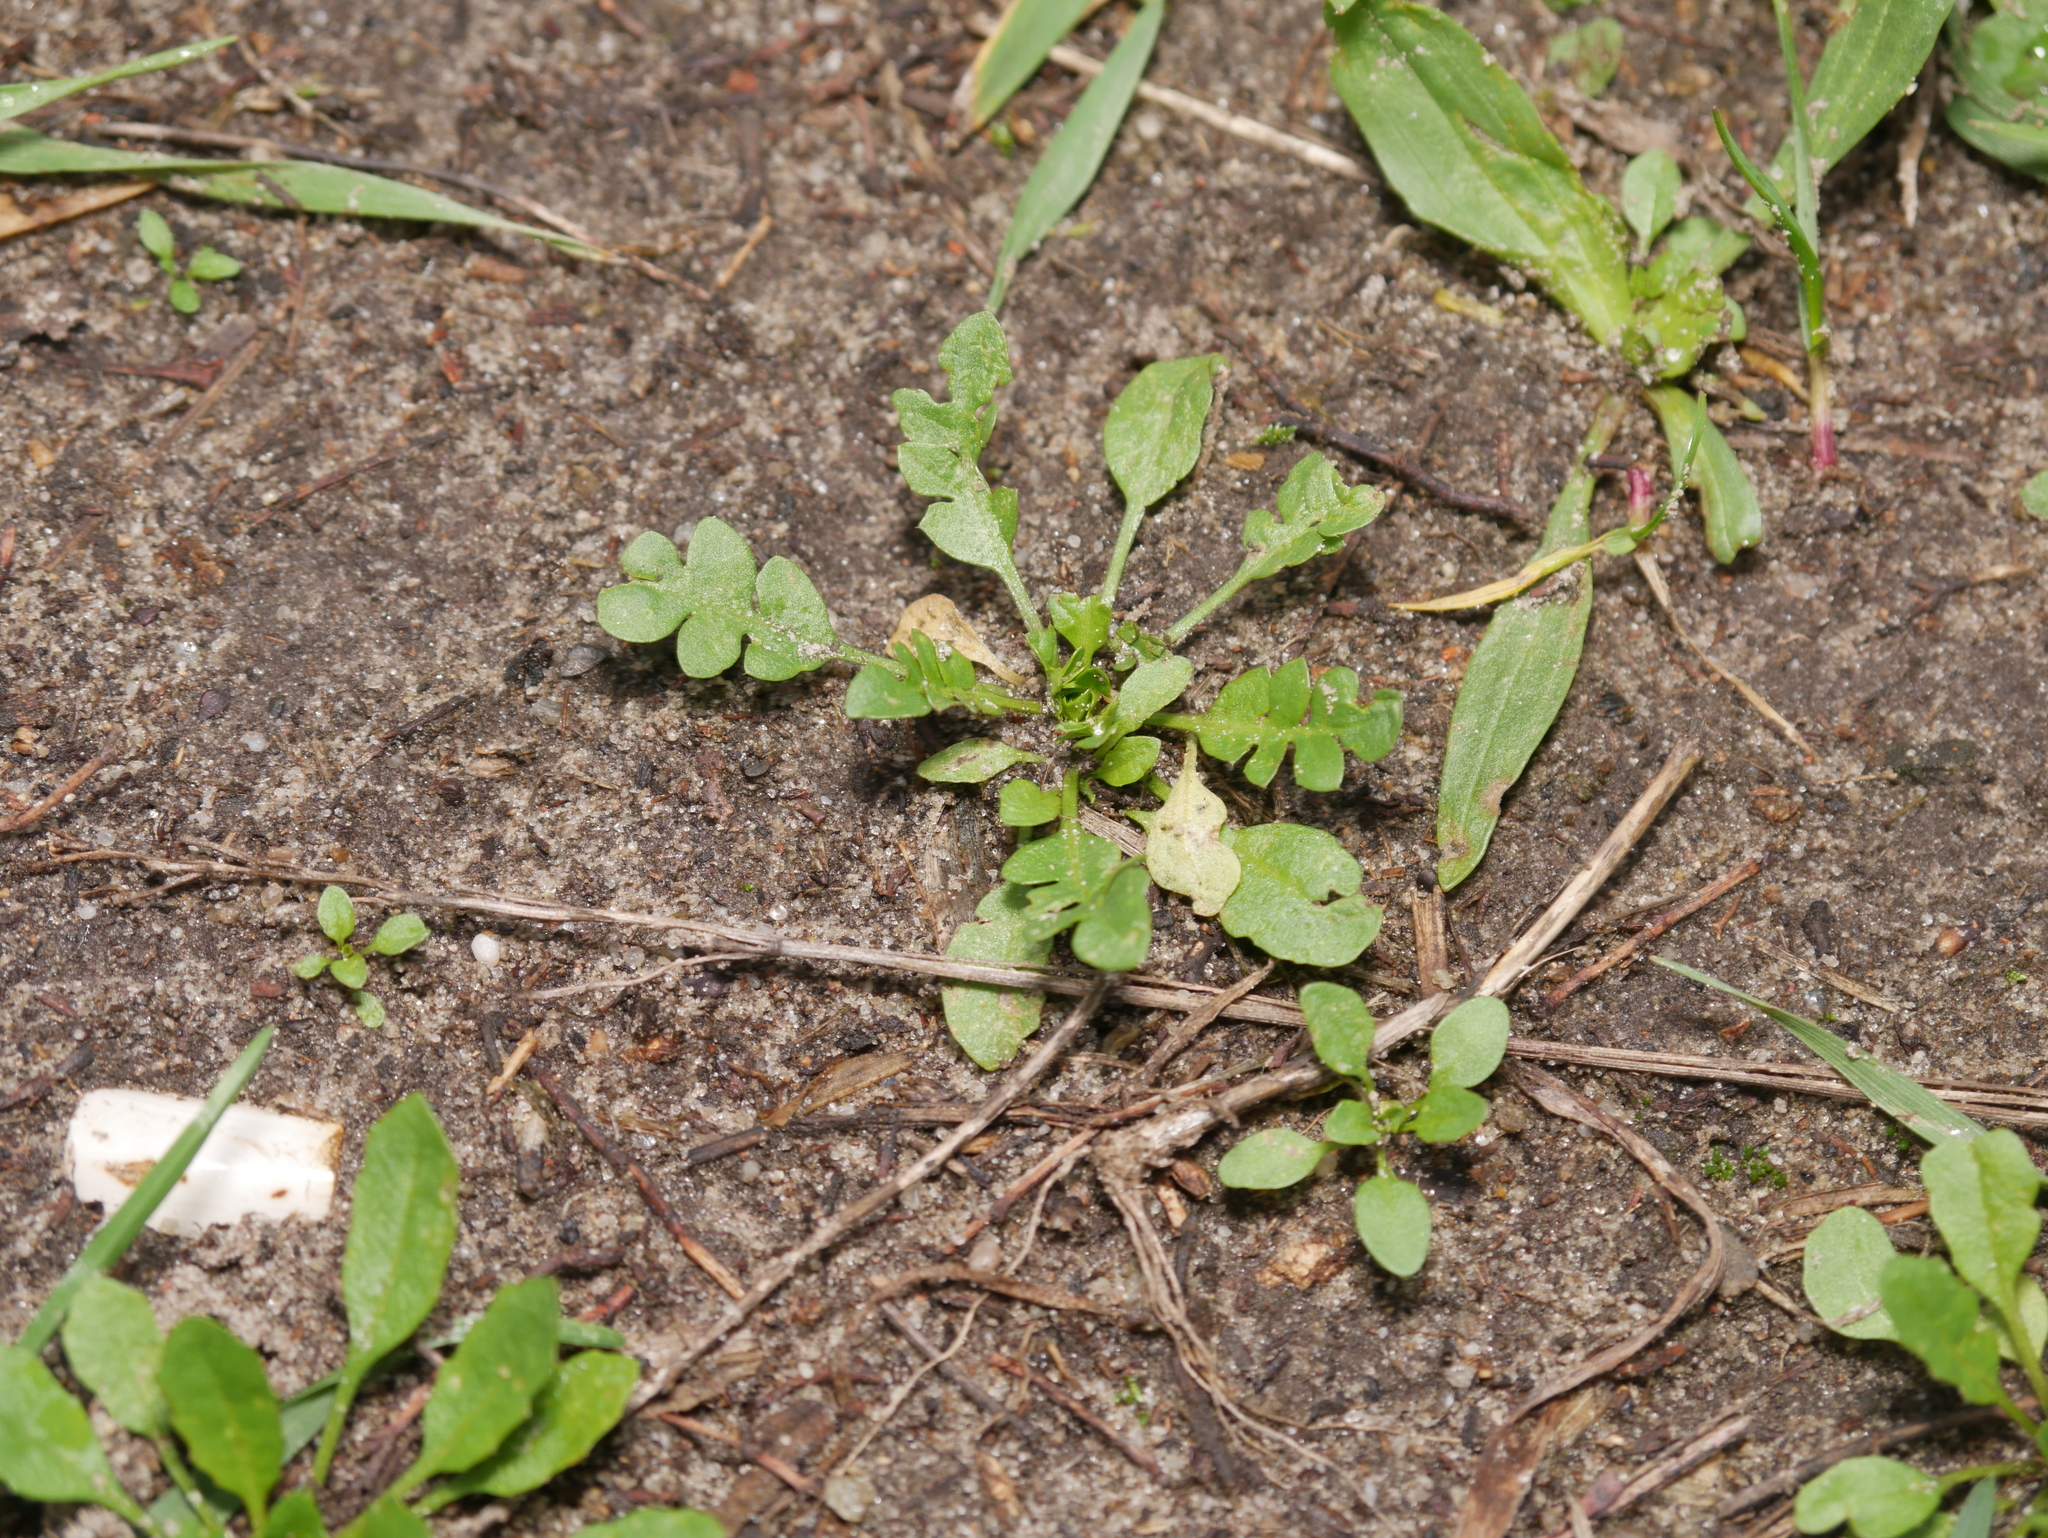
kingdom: Plantae
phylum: Tracheophyta
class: Magnoliopsida
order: Brassicales
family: Brassicaceae
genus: Capsella
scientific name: Capsella bursa-pastoris
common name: Shepherd's purse
